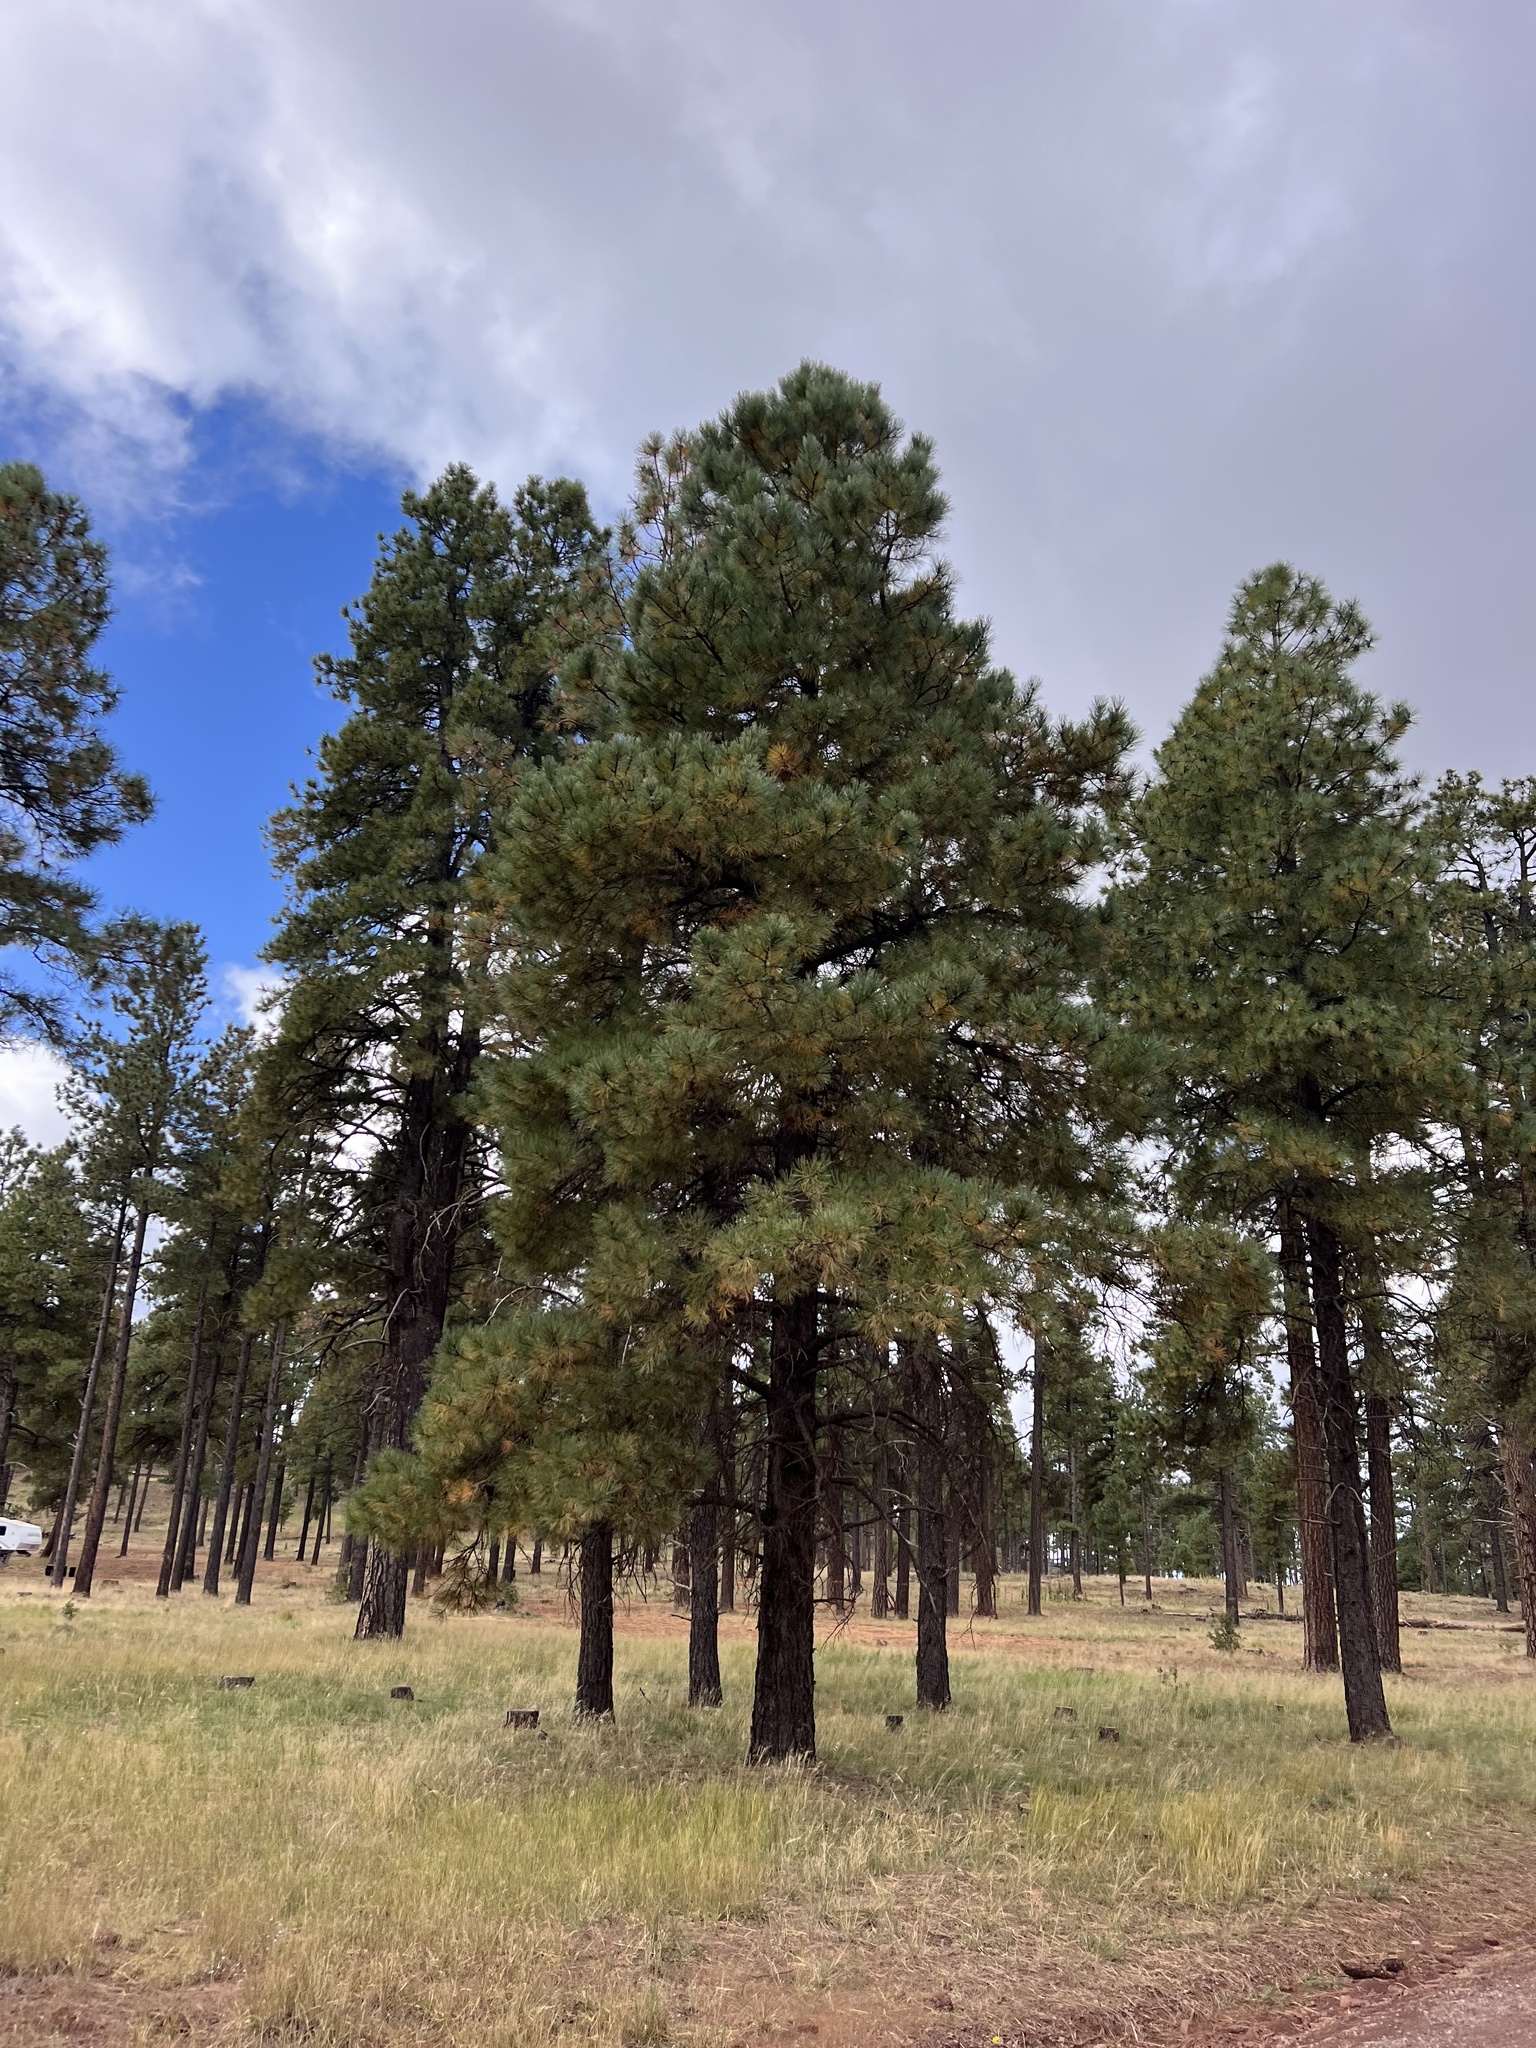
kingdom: Plantae
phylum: Tracheophyta
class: Pinopsida
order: Pinales
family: Pinaceae
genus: Pinus
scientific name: Pinus ponderosa
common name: Western yellow-pine
